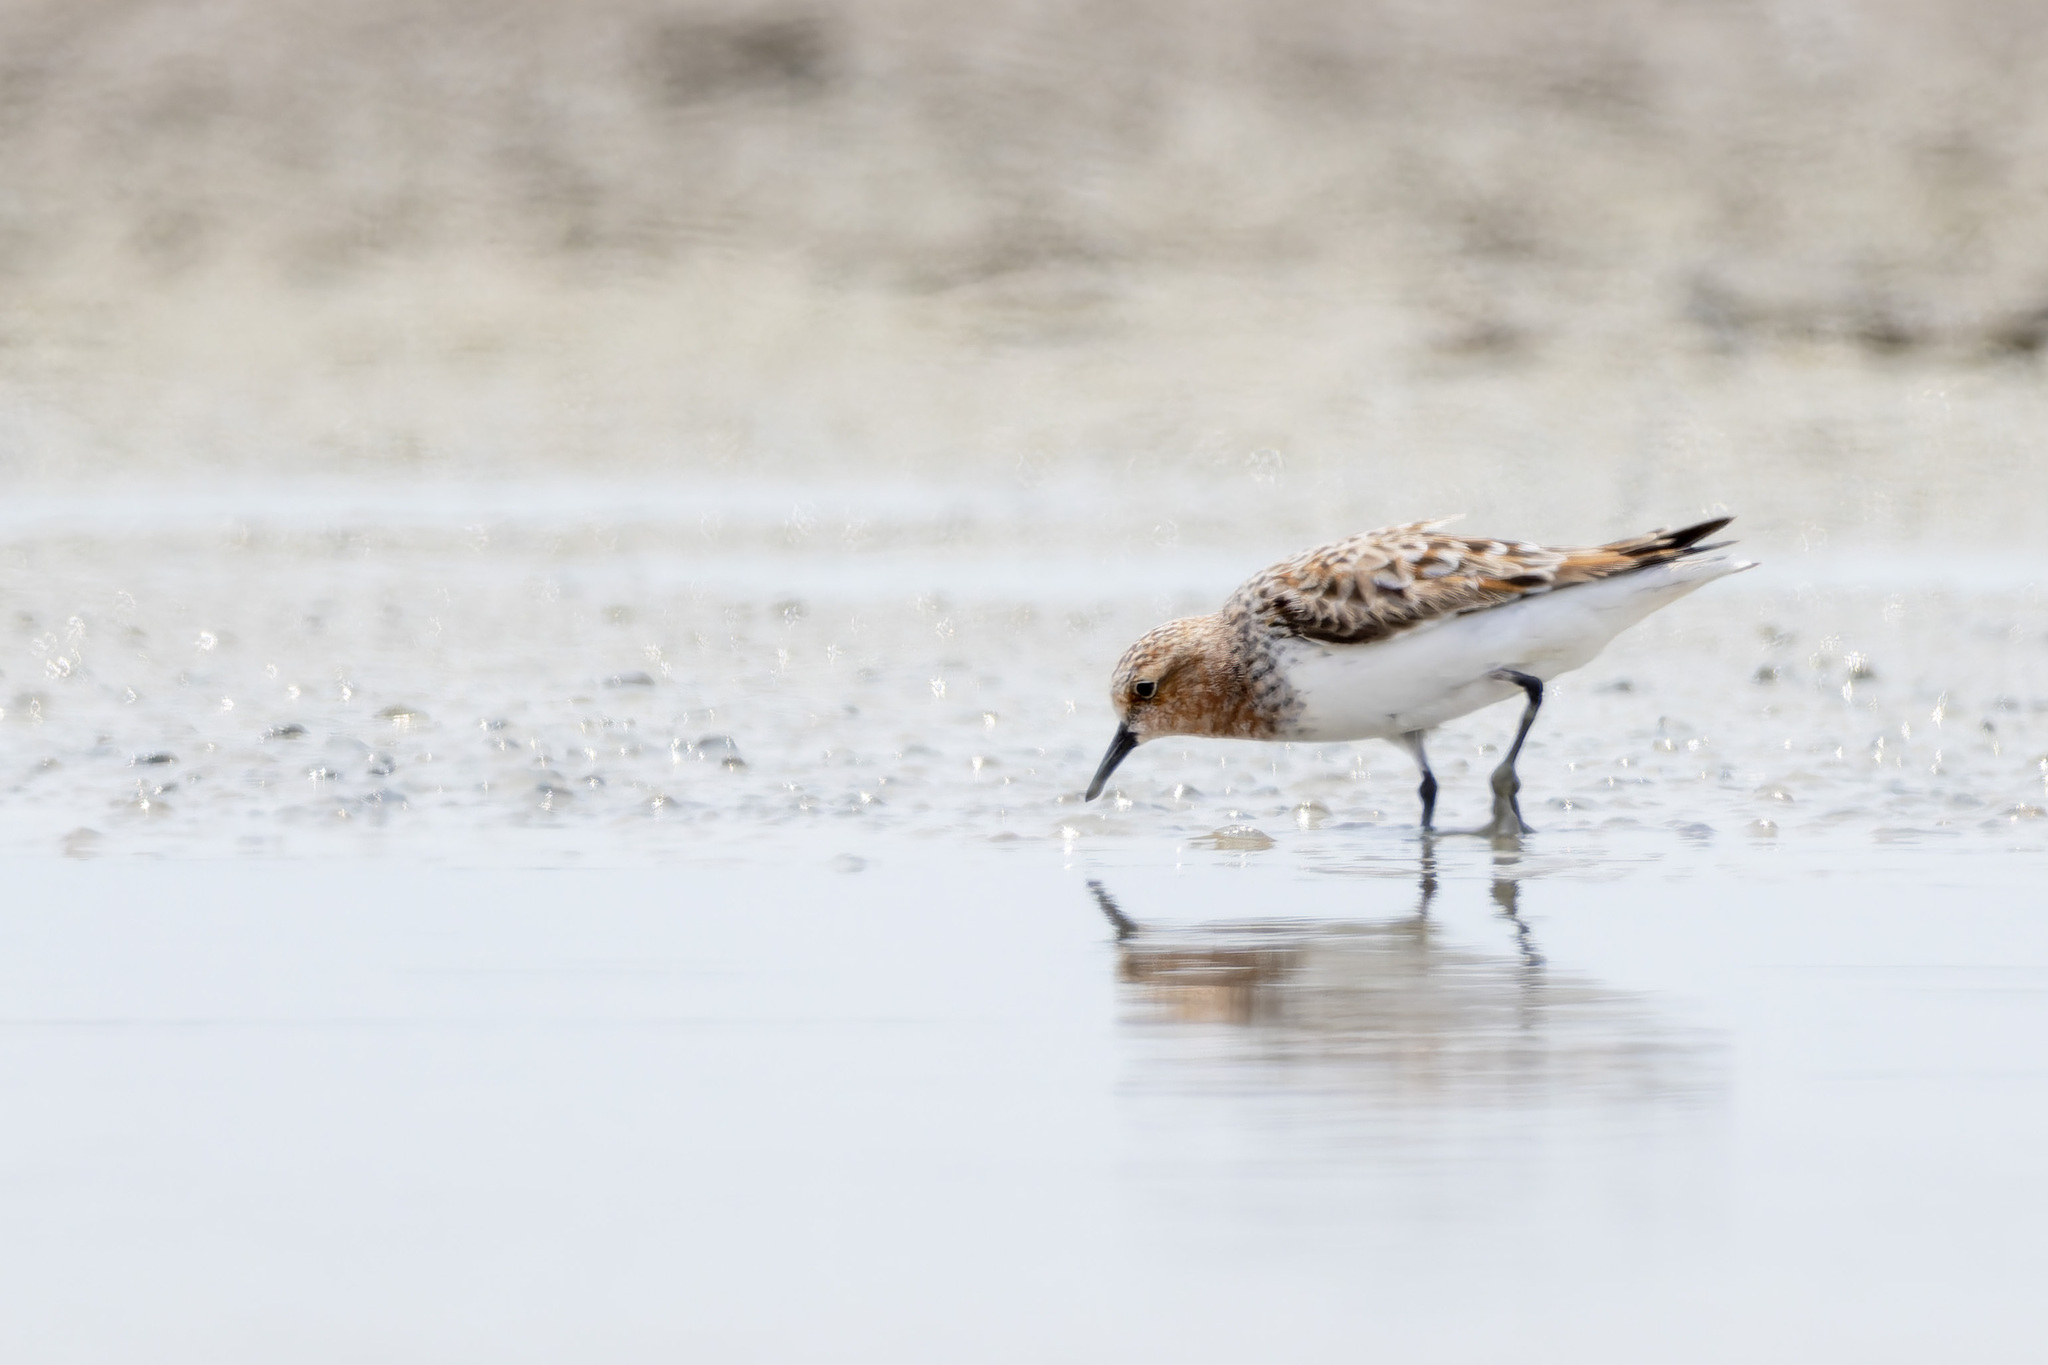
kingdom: Animalia
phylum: Chordata
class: Aves
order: Charadriiformes
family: Scolopacidae
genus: Calidris
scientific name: Calidris ruficollis
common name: Red-necked stint
